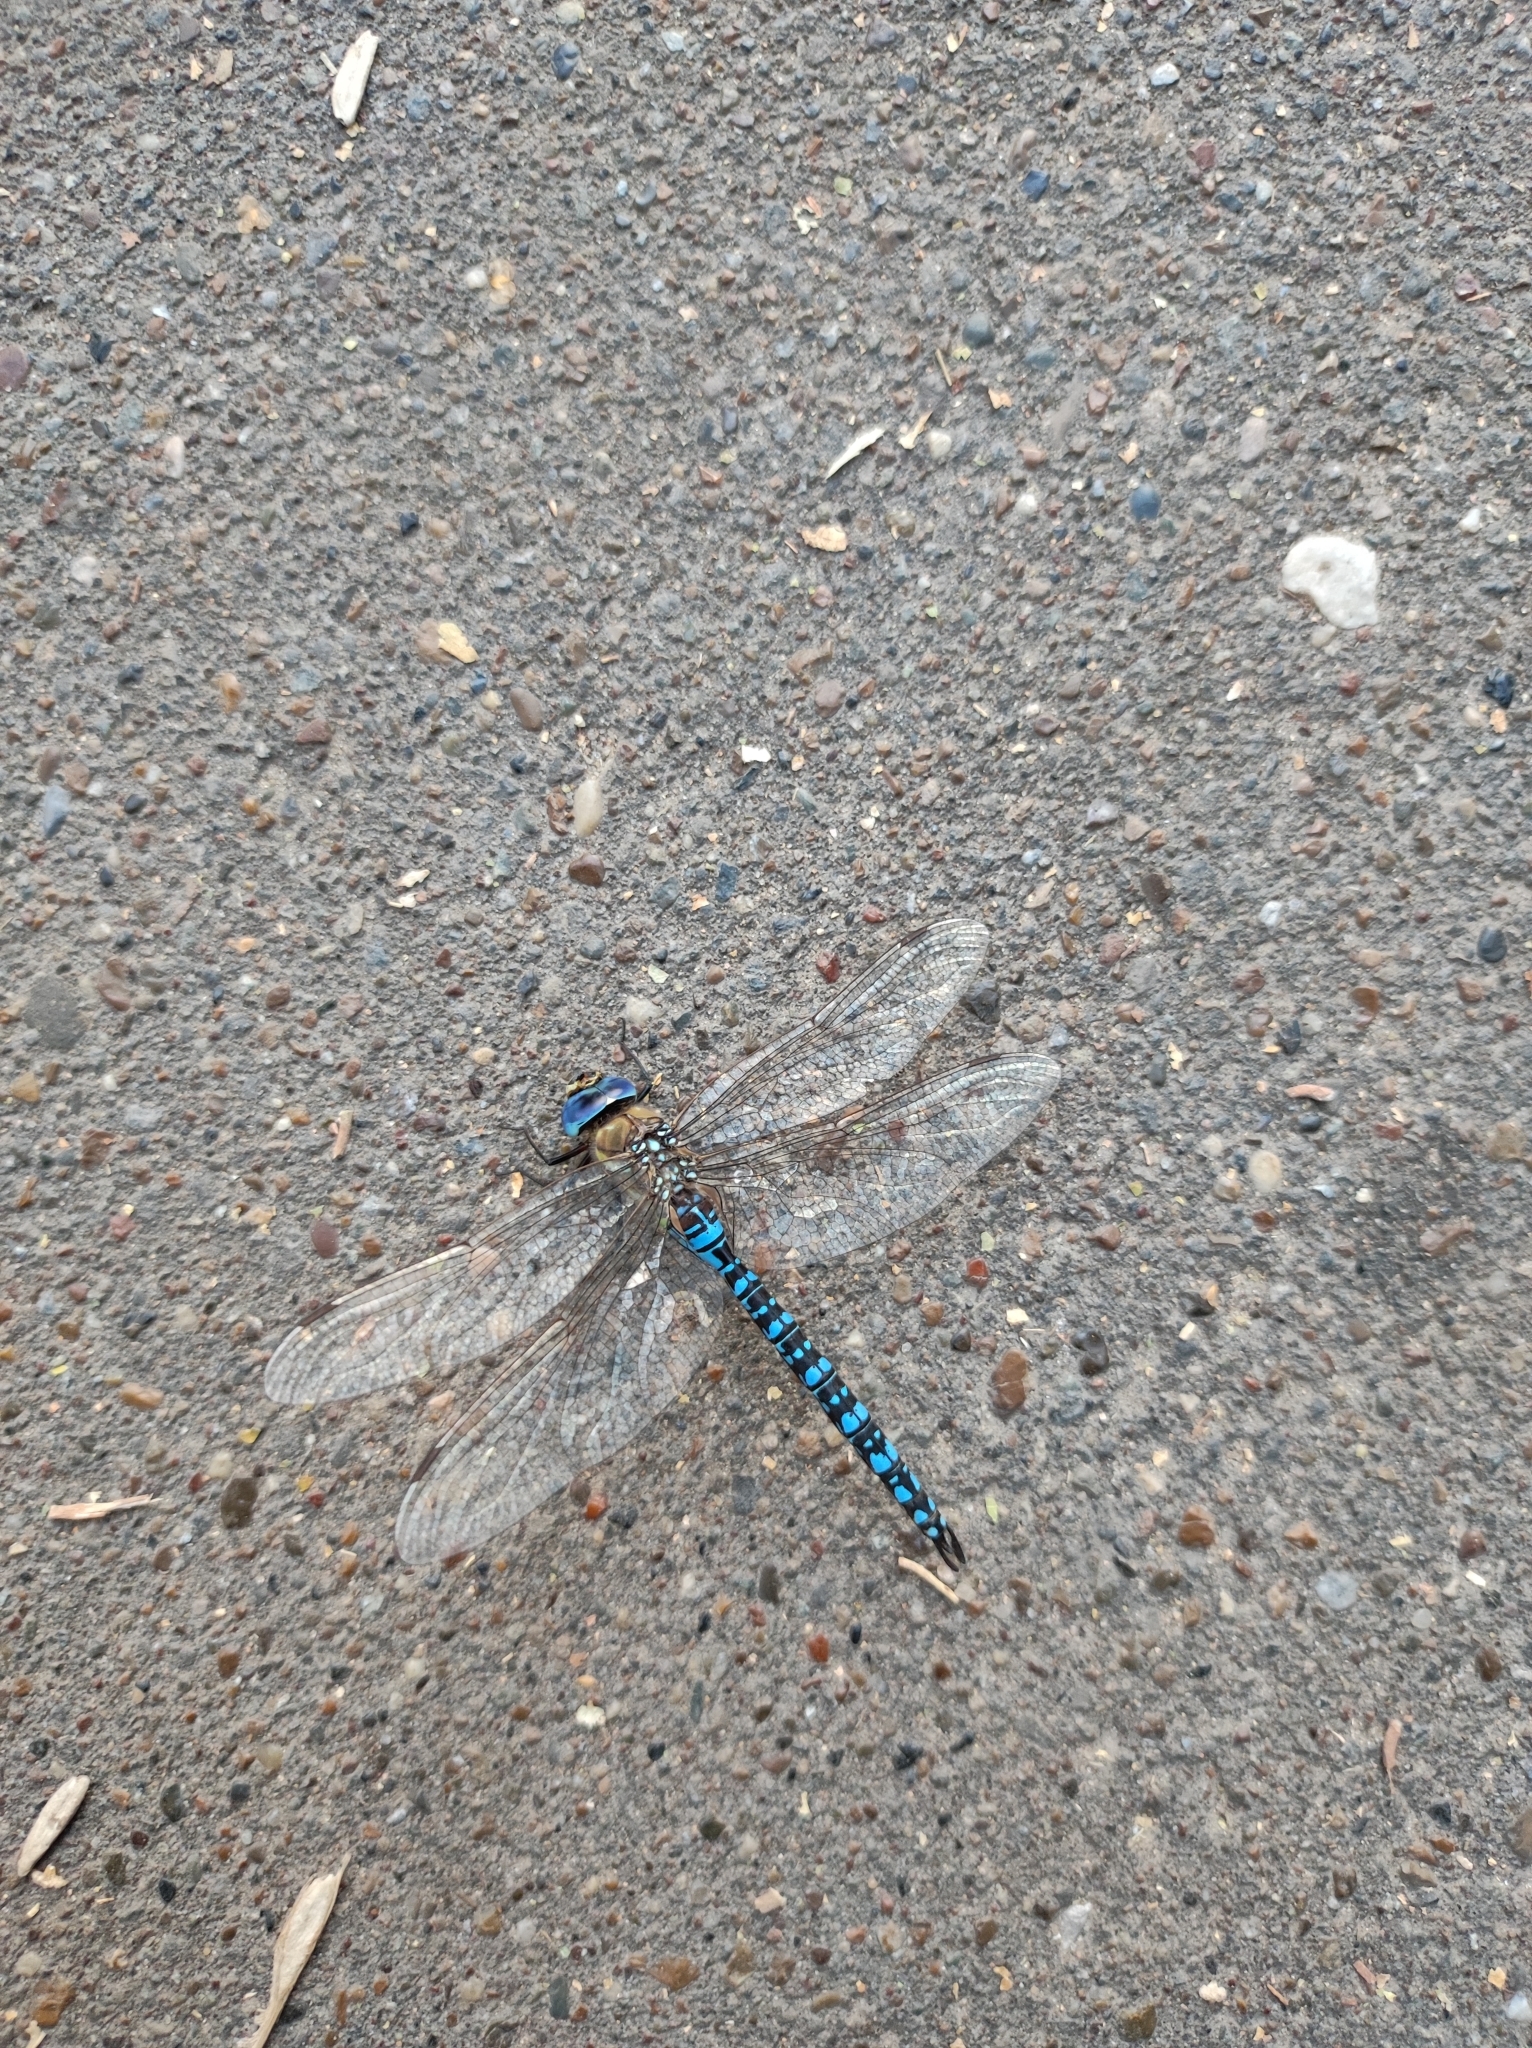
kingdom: Animalia
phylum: Arthropoda
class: Insecta
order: Odonata
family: Aeshnidae
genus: Aeshna
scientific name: Aeshna soneharai
